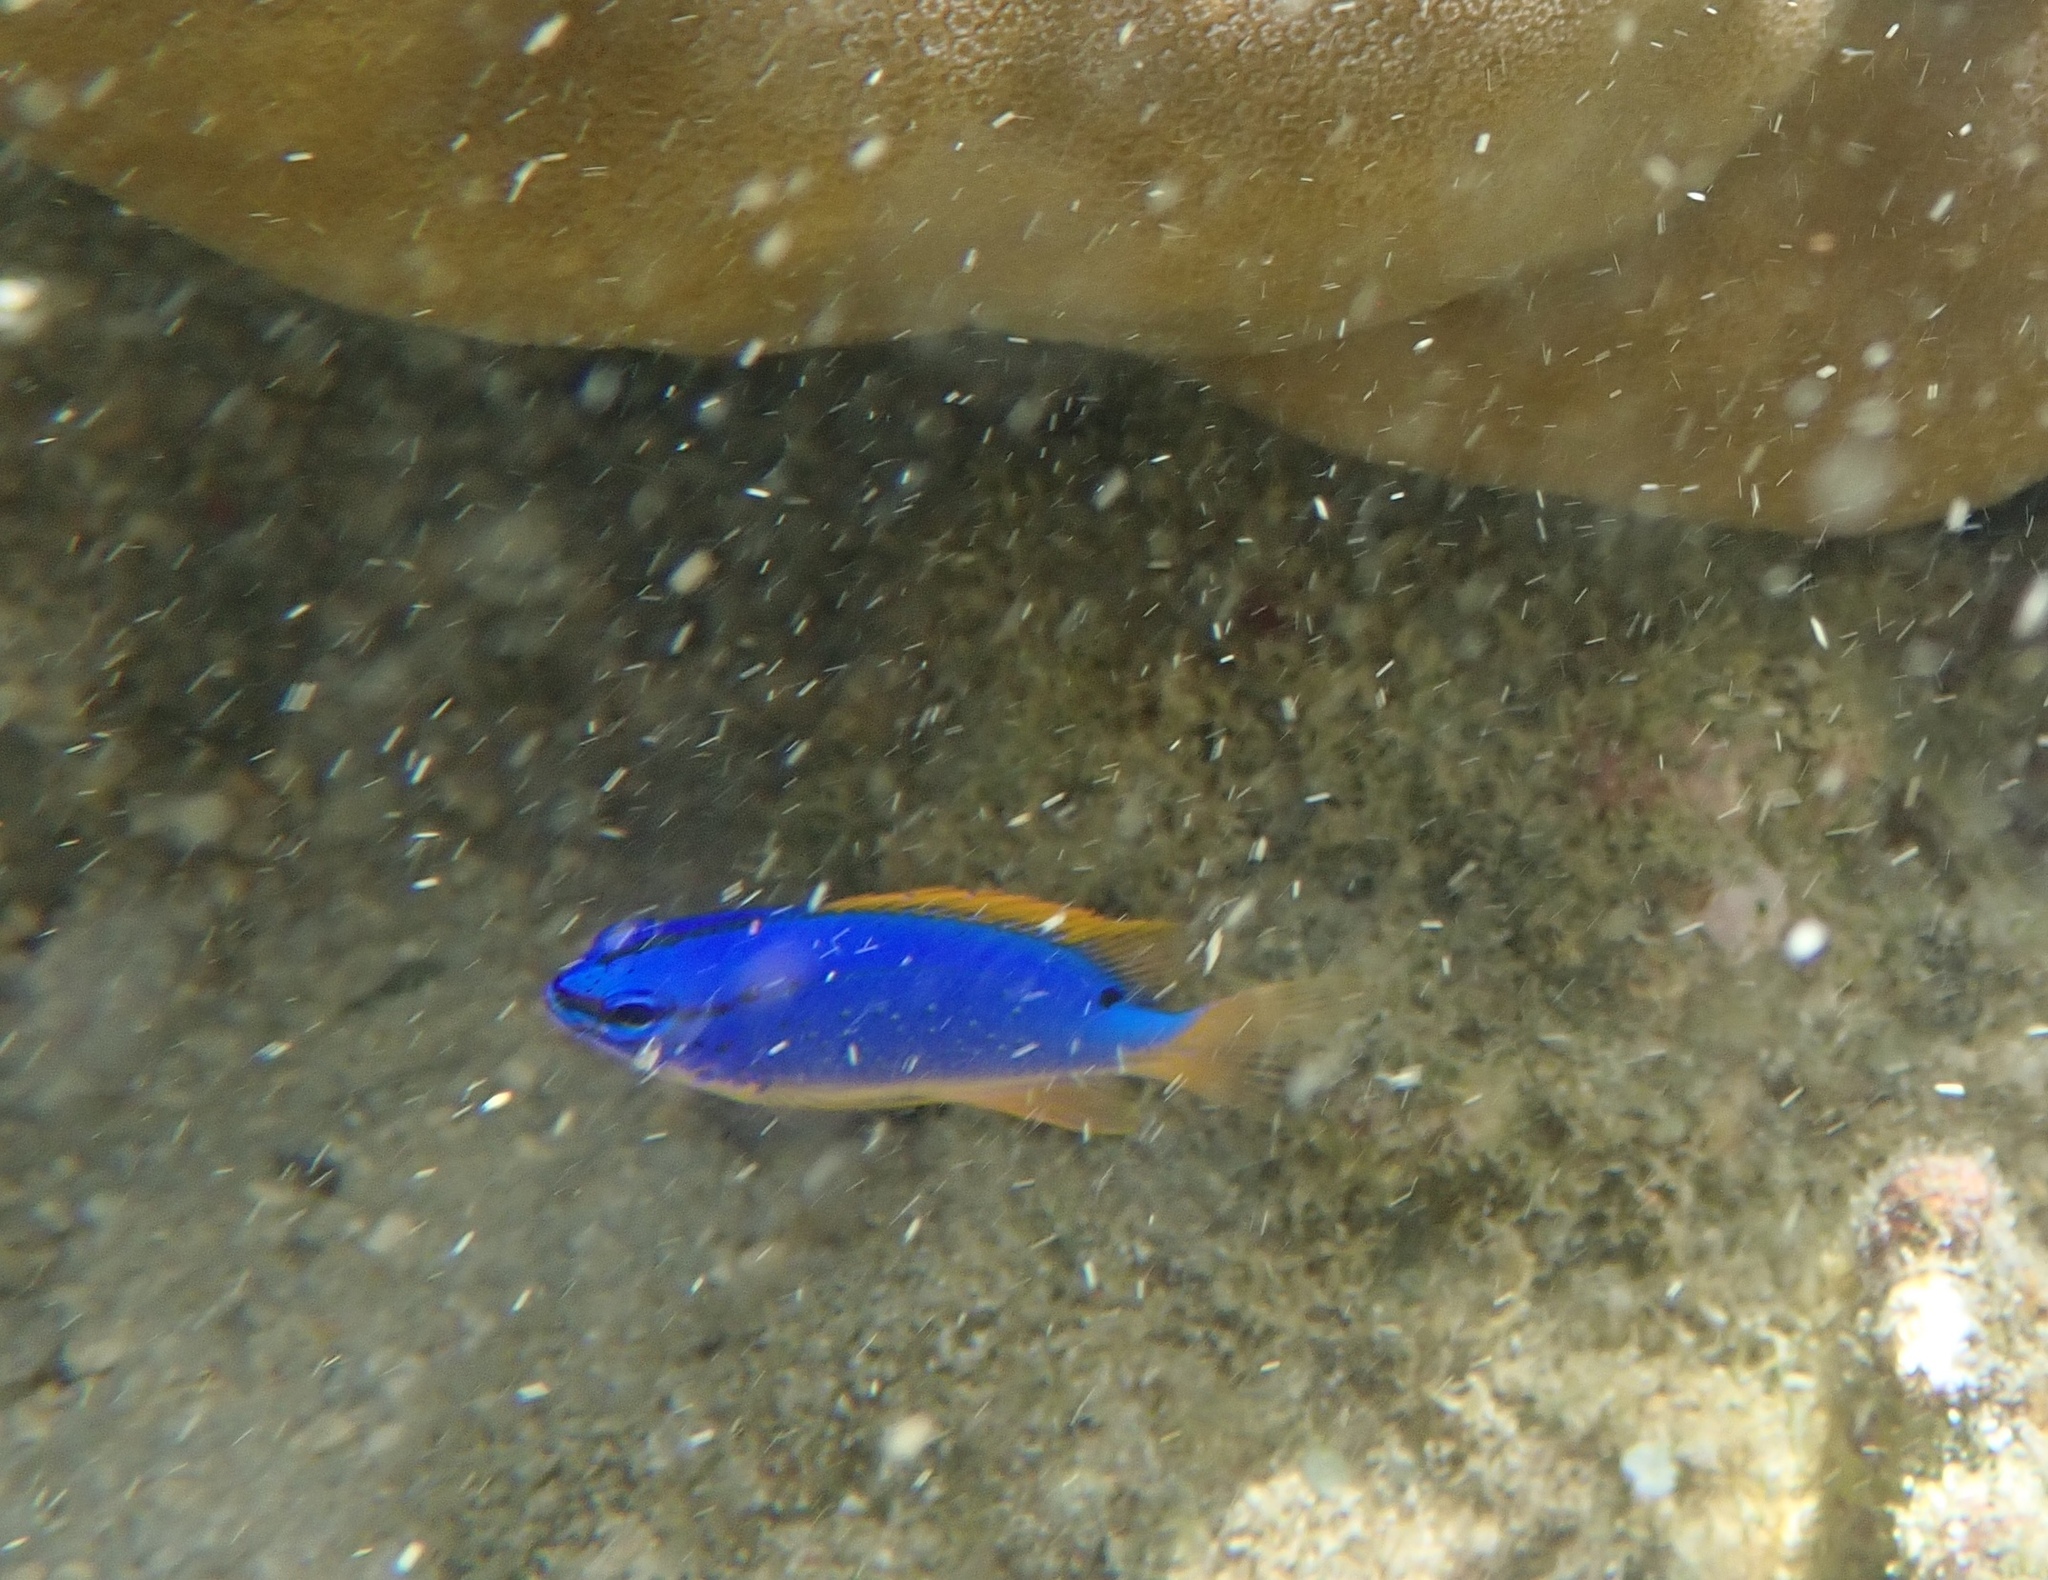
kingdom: Animalia
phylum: Chordata
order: Perciformes
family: Pomacentridae
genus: Chrysiptera
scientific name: Chrysiptera taupou
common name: Fiji damsel
